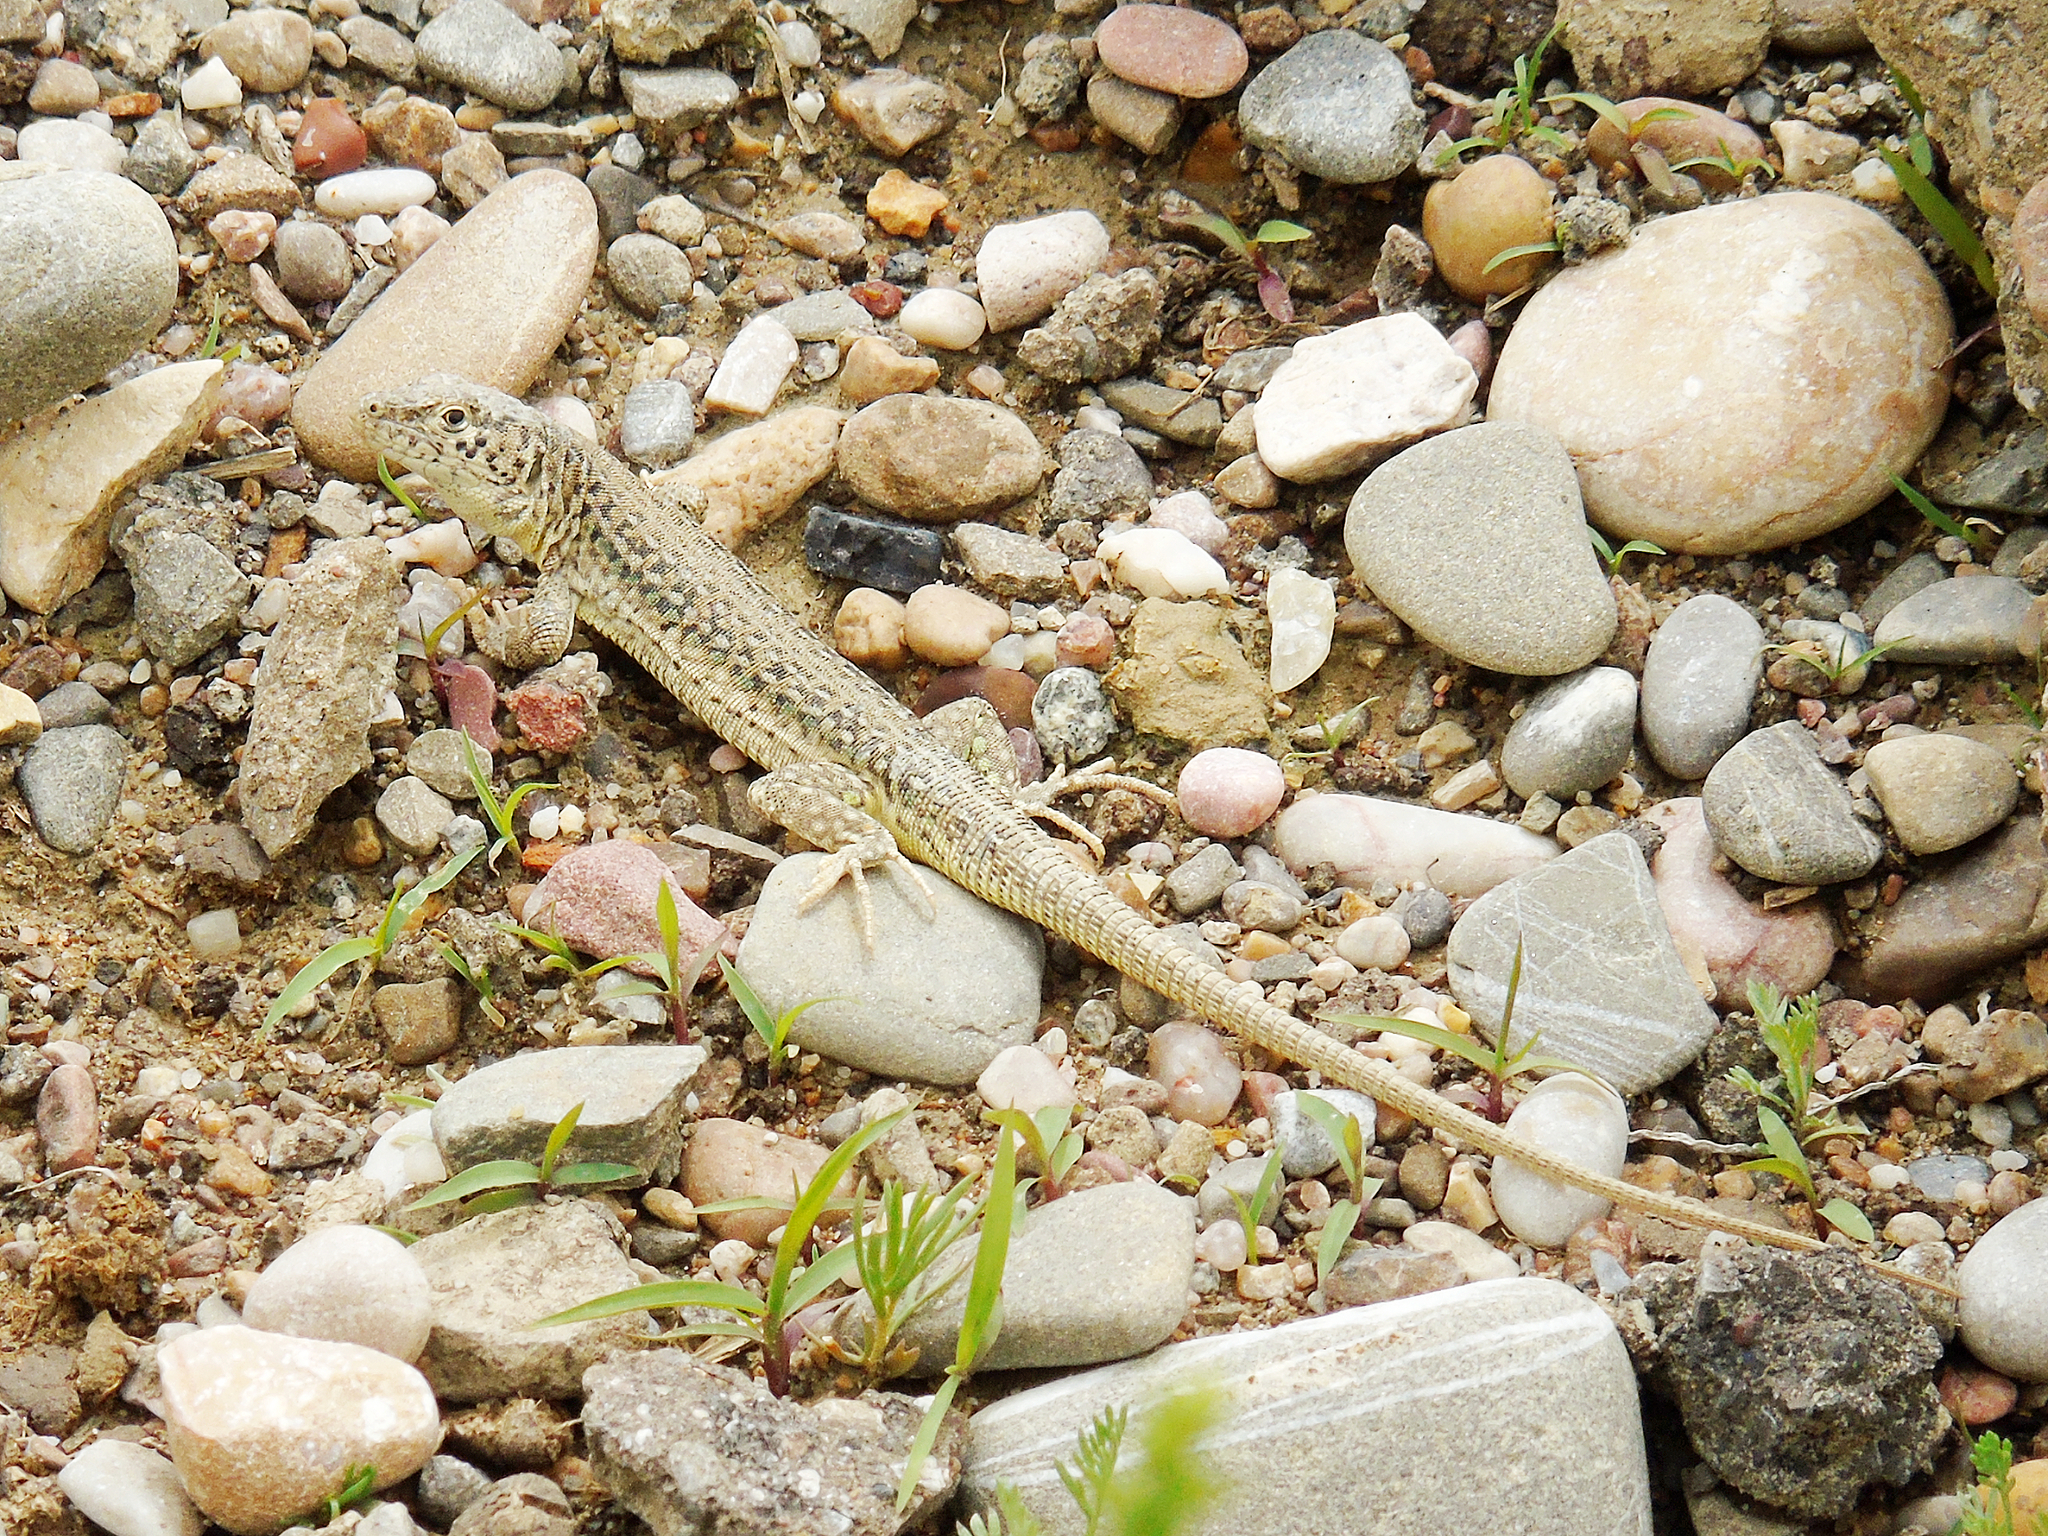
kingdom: Animalia
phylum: Chordata
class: Squamata
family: Lacertidae
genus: Eremias
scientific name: Eremias szczerbaki
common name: Szczerbak’s racerunner
